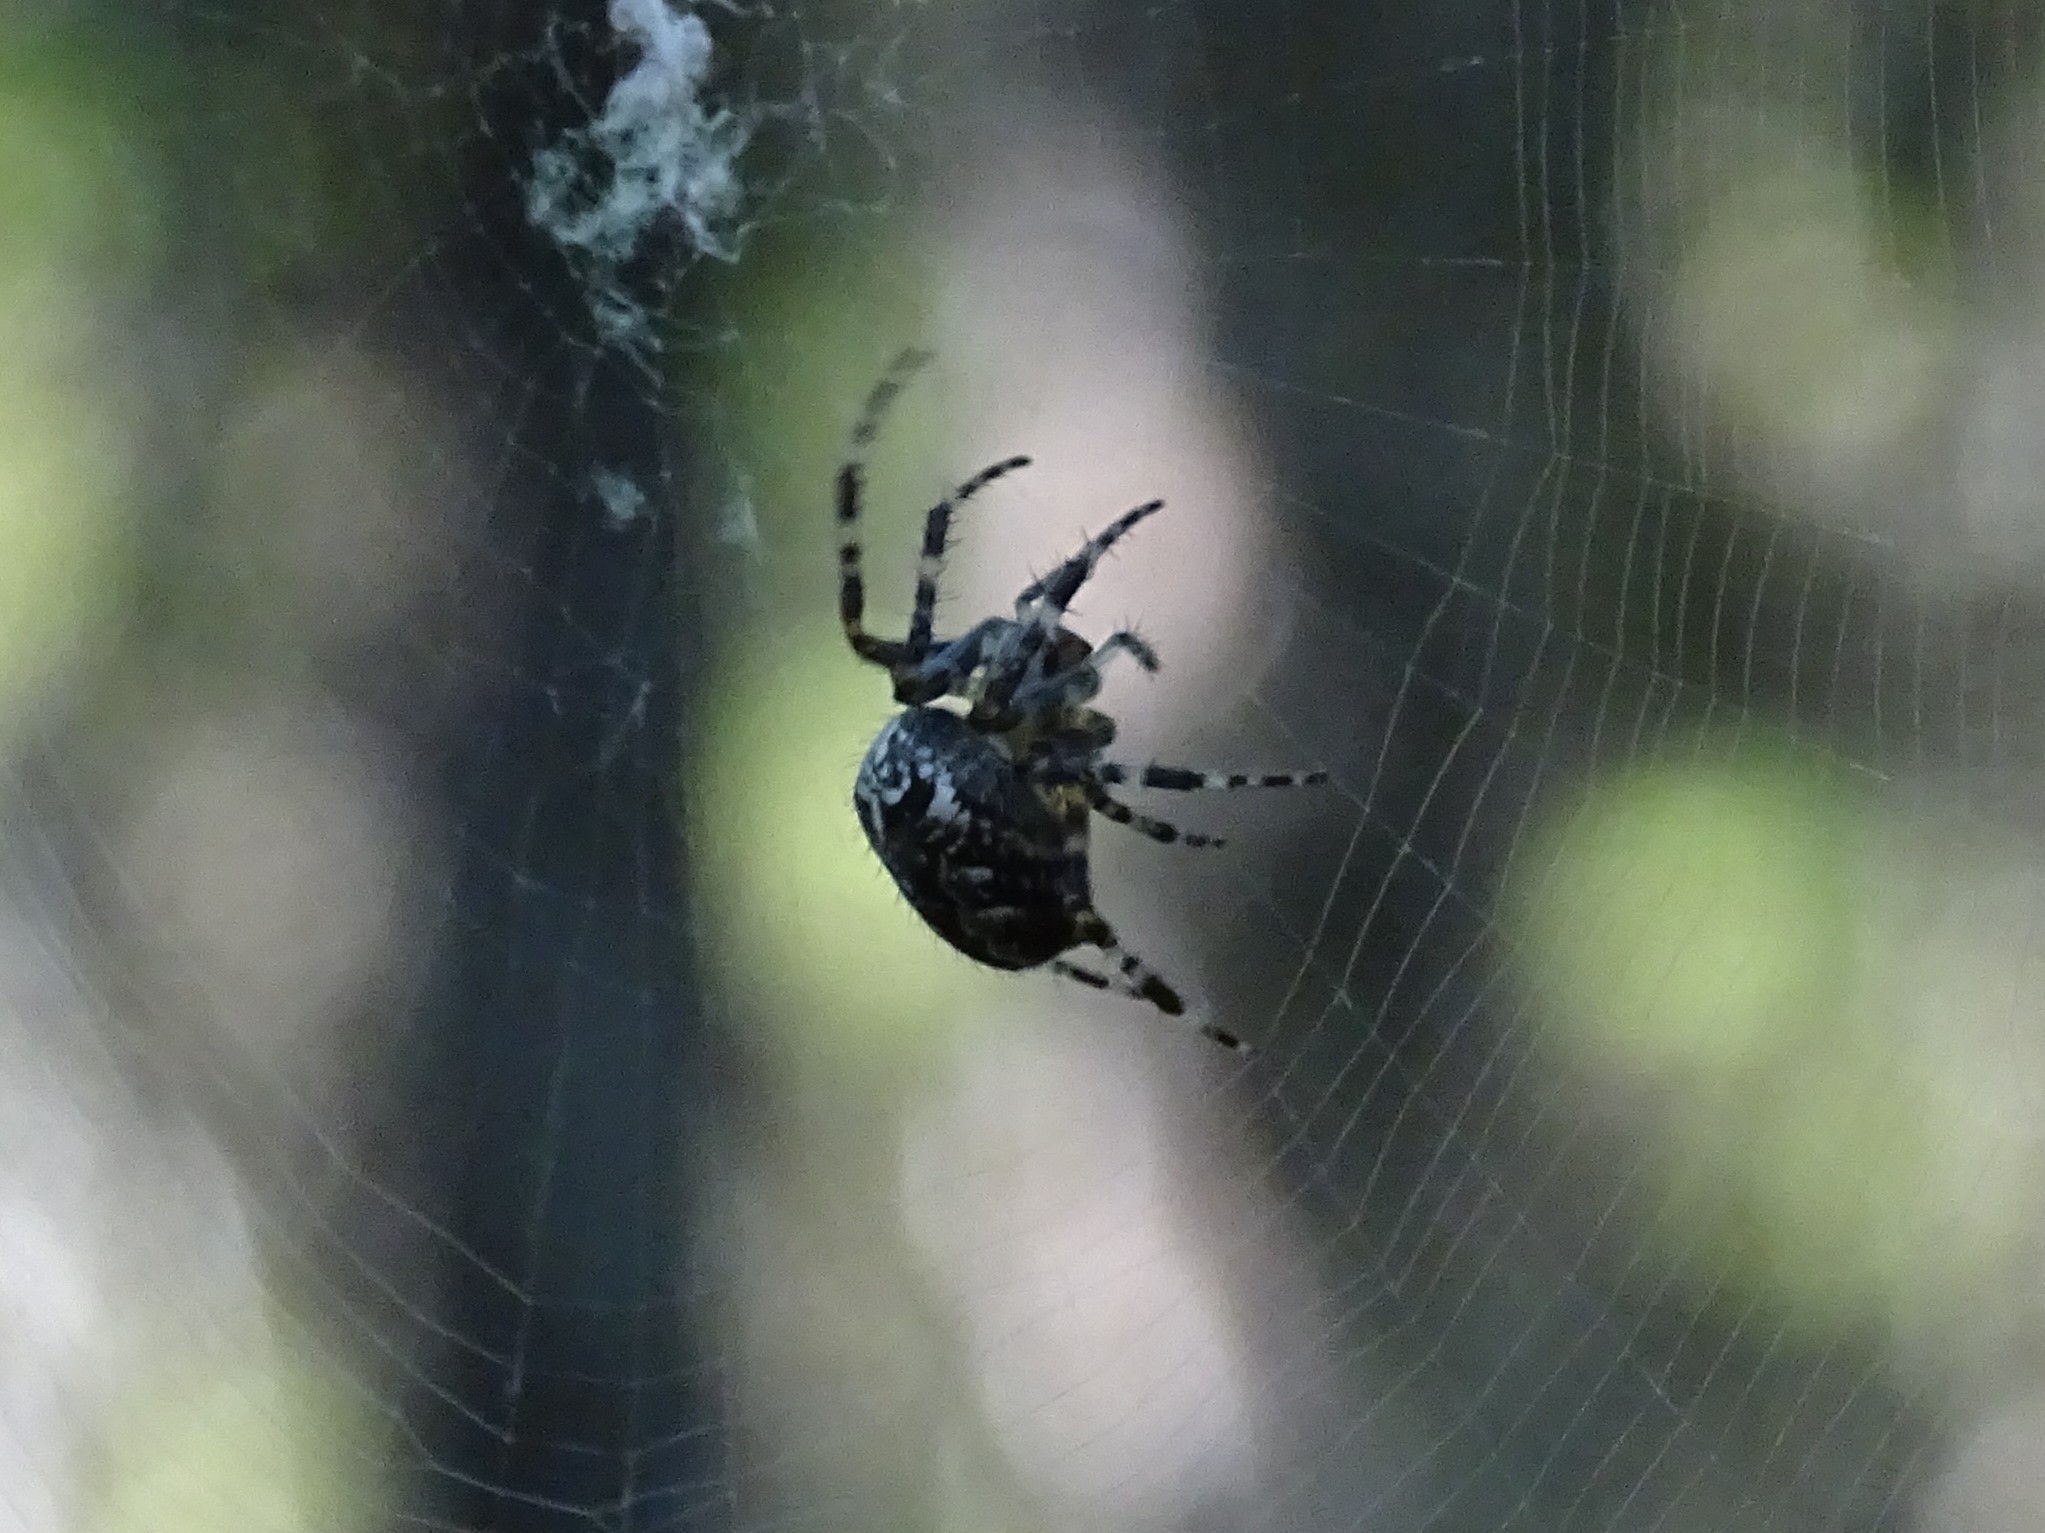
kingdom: Animalia
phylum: Arthropoda
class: Arachnida
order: Araneae
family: Araneidae
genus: Araneus
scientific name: Araneus diadematus
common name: Cross orbweaver
